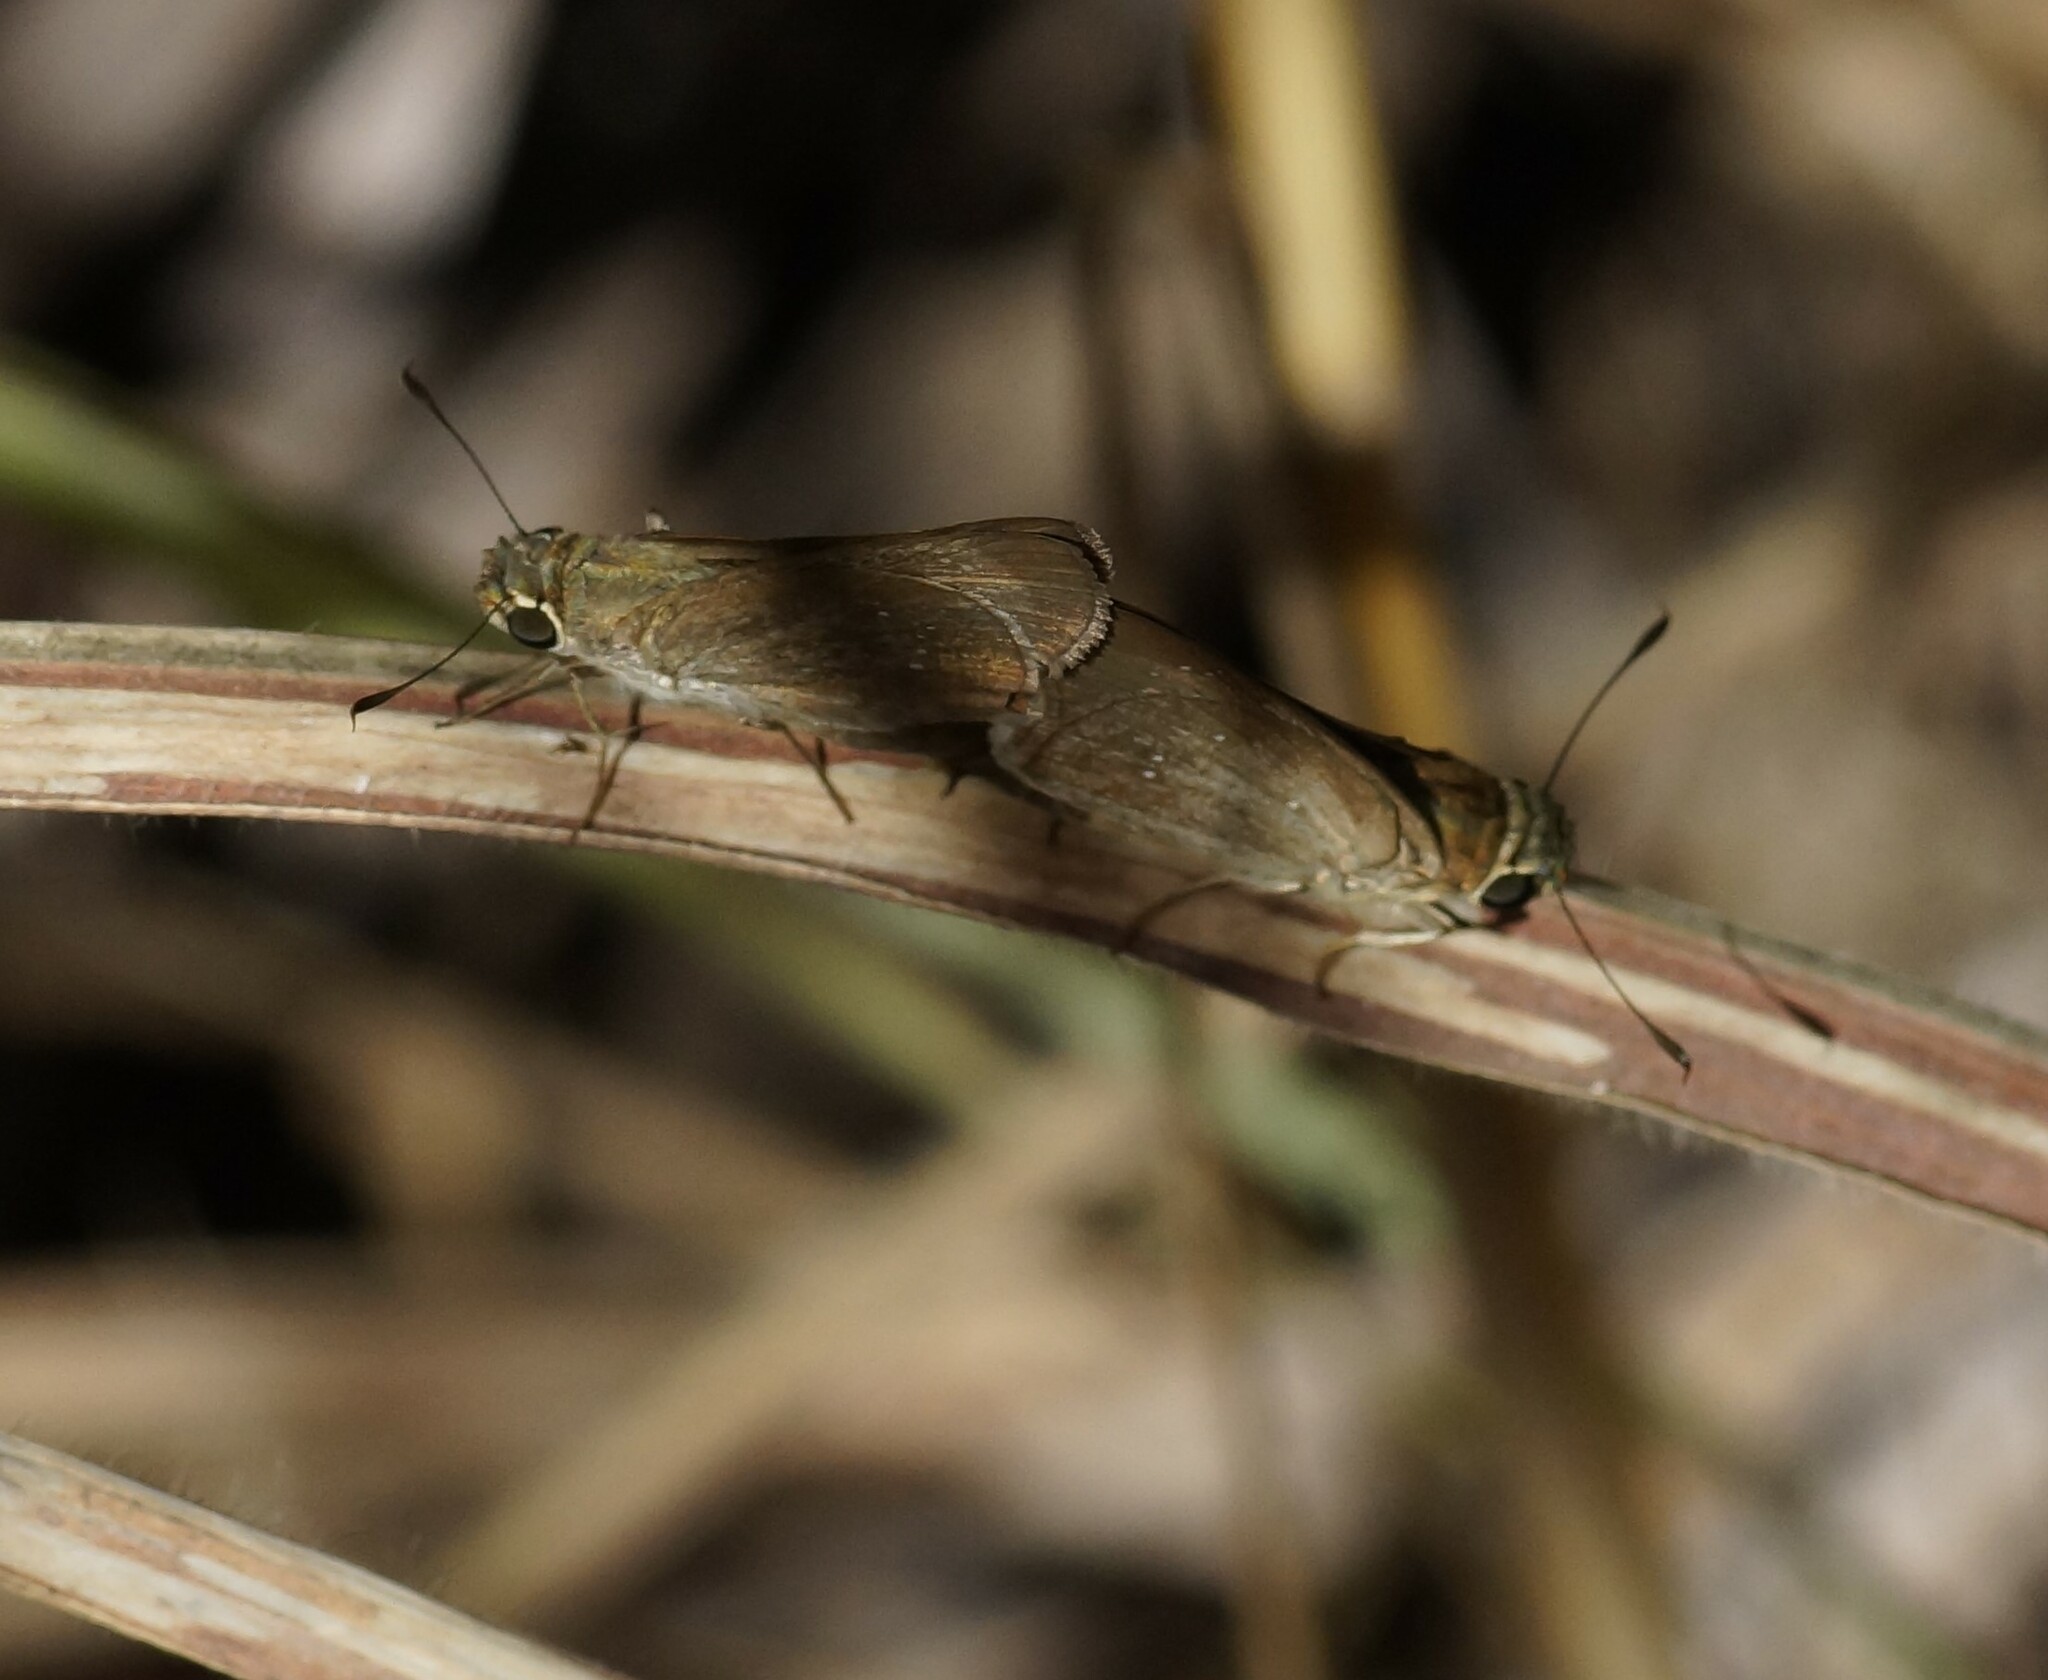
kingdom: Animalia
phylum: Arthropoda
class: Insecta
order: Lepidoptera
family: Hesperiidae
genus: Pelopidas
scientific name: Pelopidas lyelli
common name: Lyell's swift
